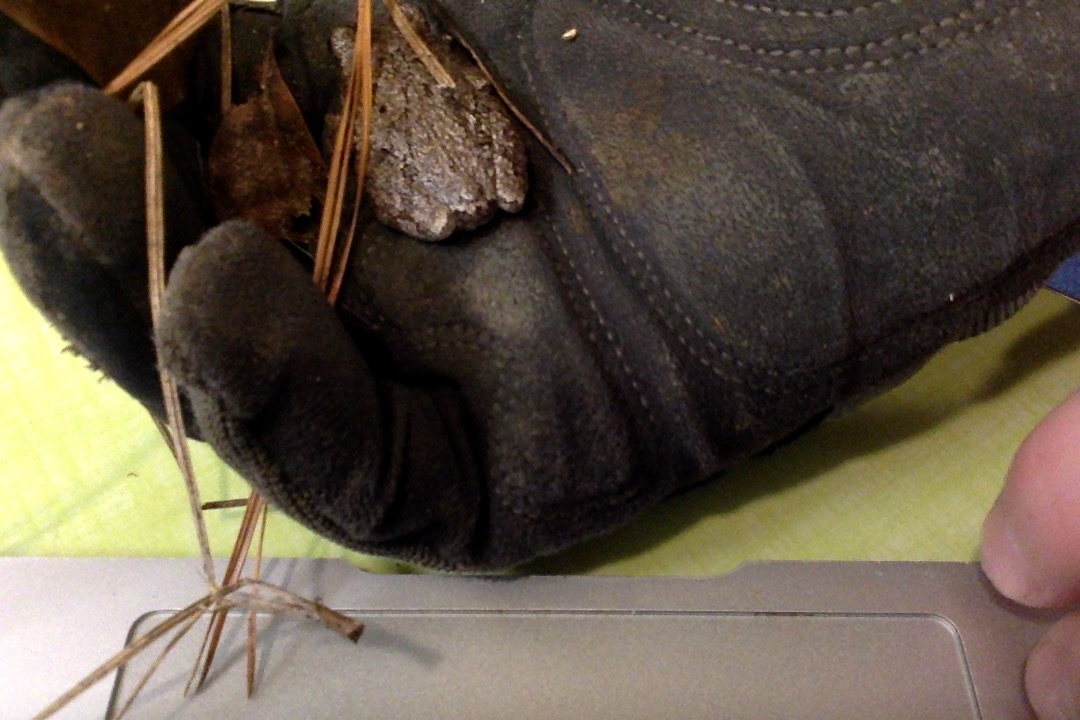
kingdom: Animalia
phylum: Chordata
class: Amphibia
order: Anura
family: Hylidae
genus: Dryophytes
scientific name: Dryophytes chrysoscelis
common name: Cope's gray treefrog
